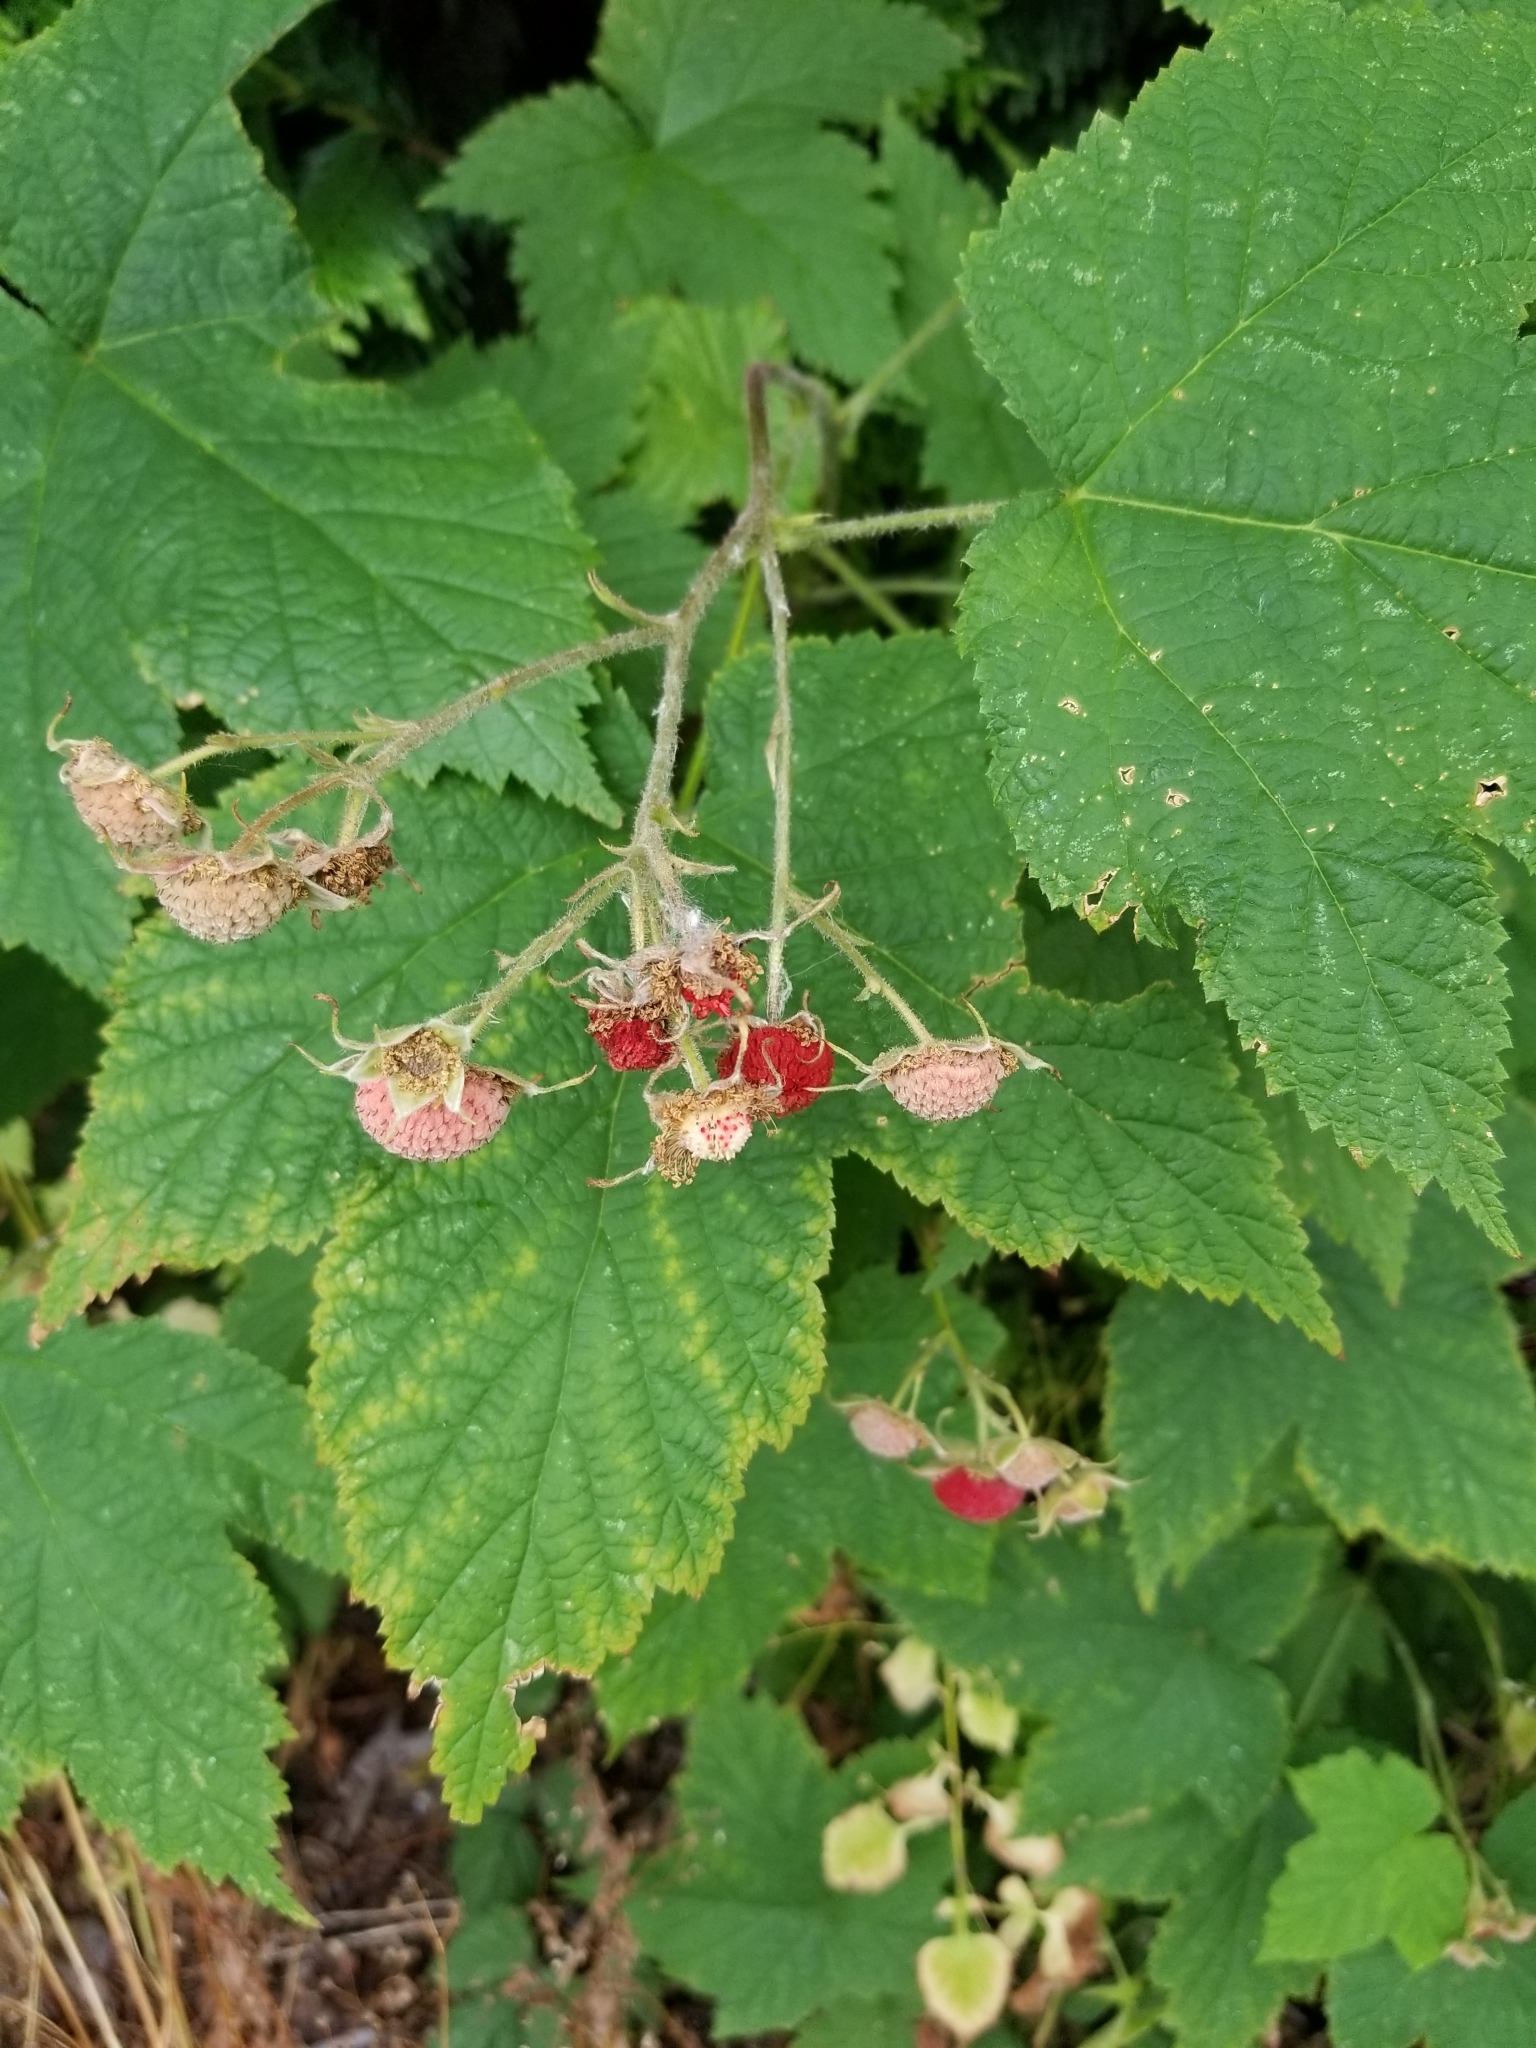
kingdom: Plantae
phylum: Tracheophyta
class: Magnoliopsida
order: Rosales
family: Rosaceae
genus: Rubus
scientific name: Rubus parviflorus
